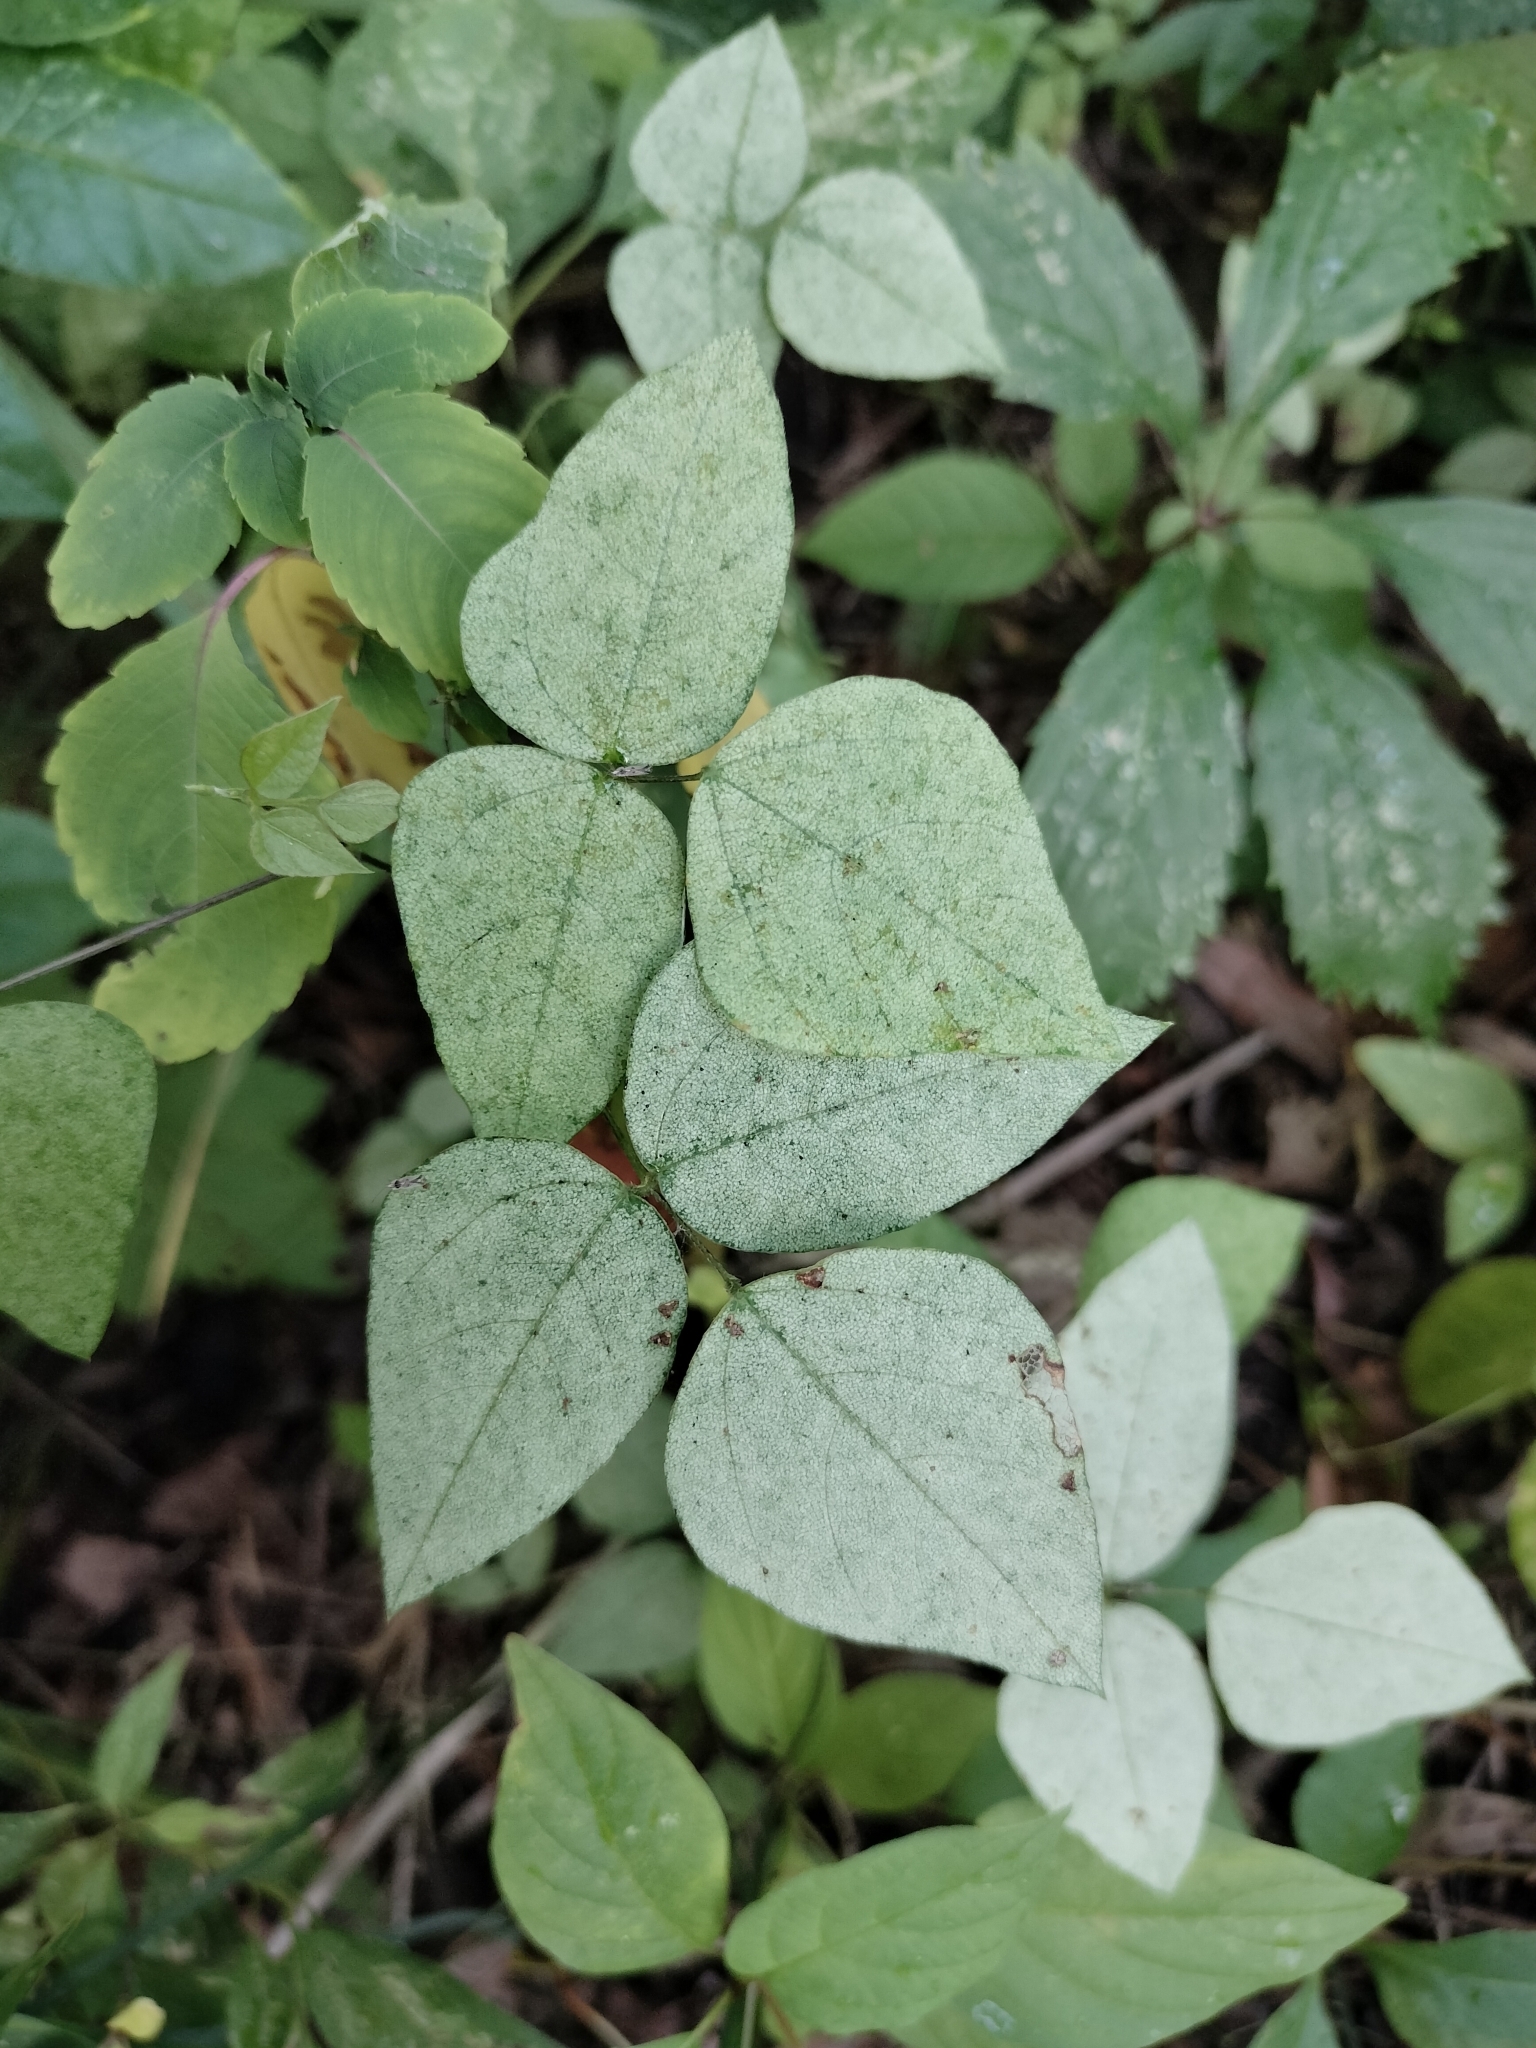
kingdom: Plantae
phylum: Tracheophyta
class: Magnoliopsida
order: Fabales
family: Fabaceae
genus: Amphicarpaea
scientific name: Amphicarpaea bracteata
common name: American hog peanut
